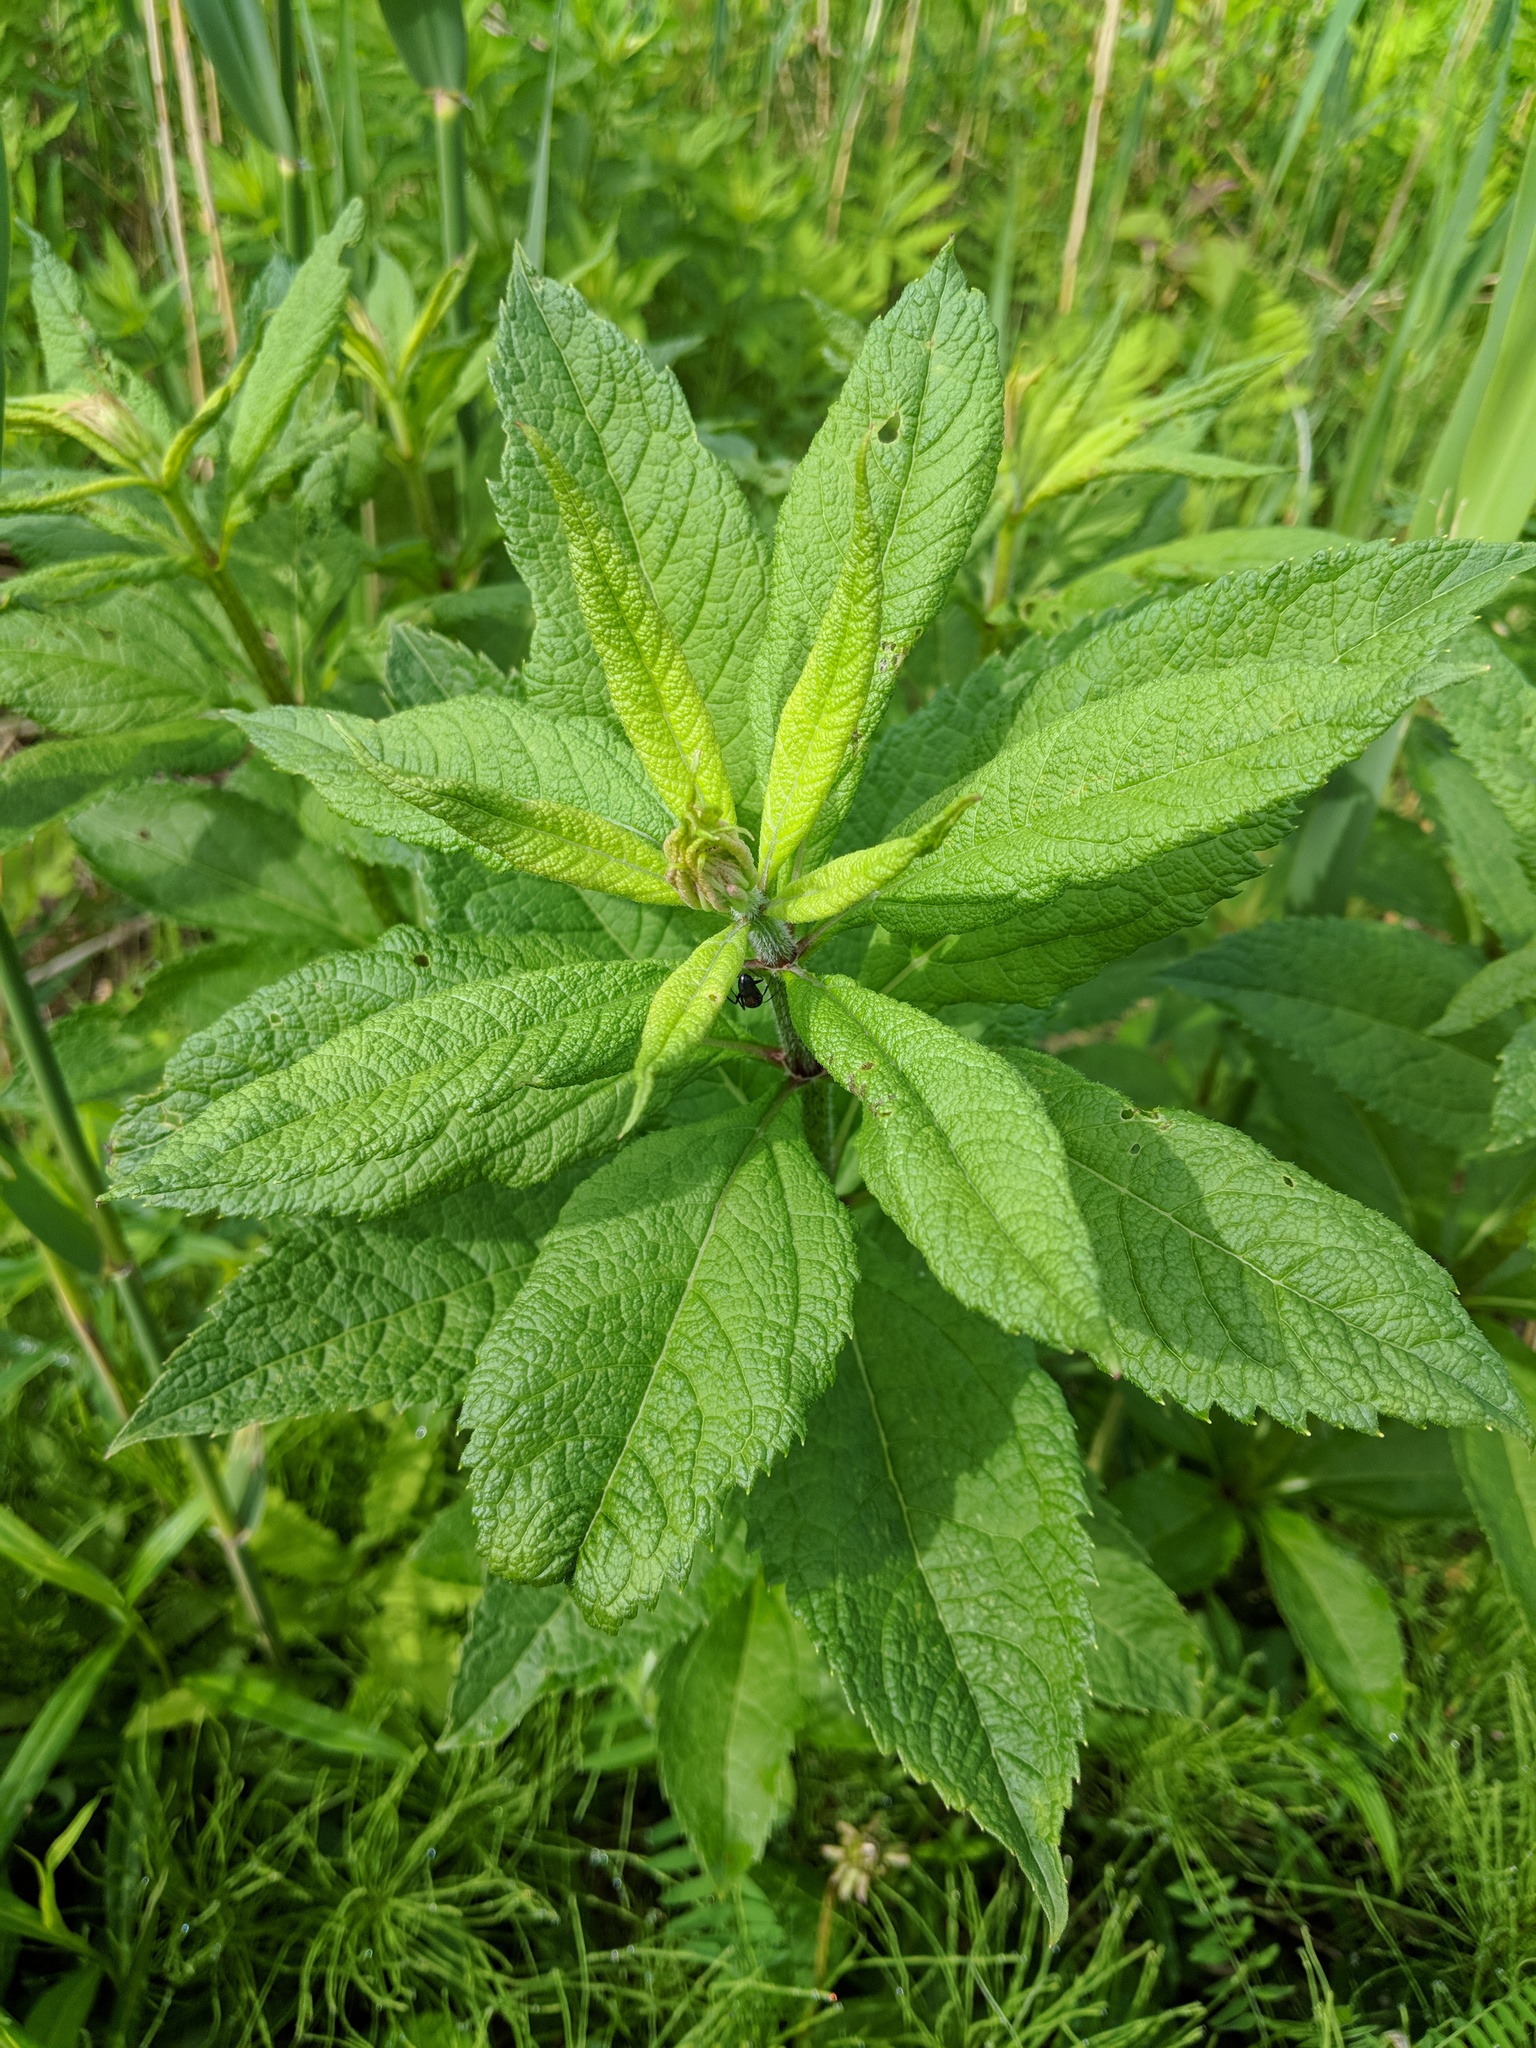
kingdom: Plantae
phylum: Tracheophyta
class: Magnoliopsida
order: Asterales
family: Asteraceae
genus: Eutrochium
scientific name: Eutrochium maculatum
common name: Spotted joe pye weed
